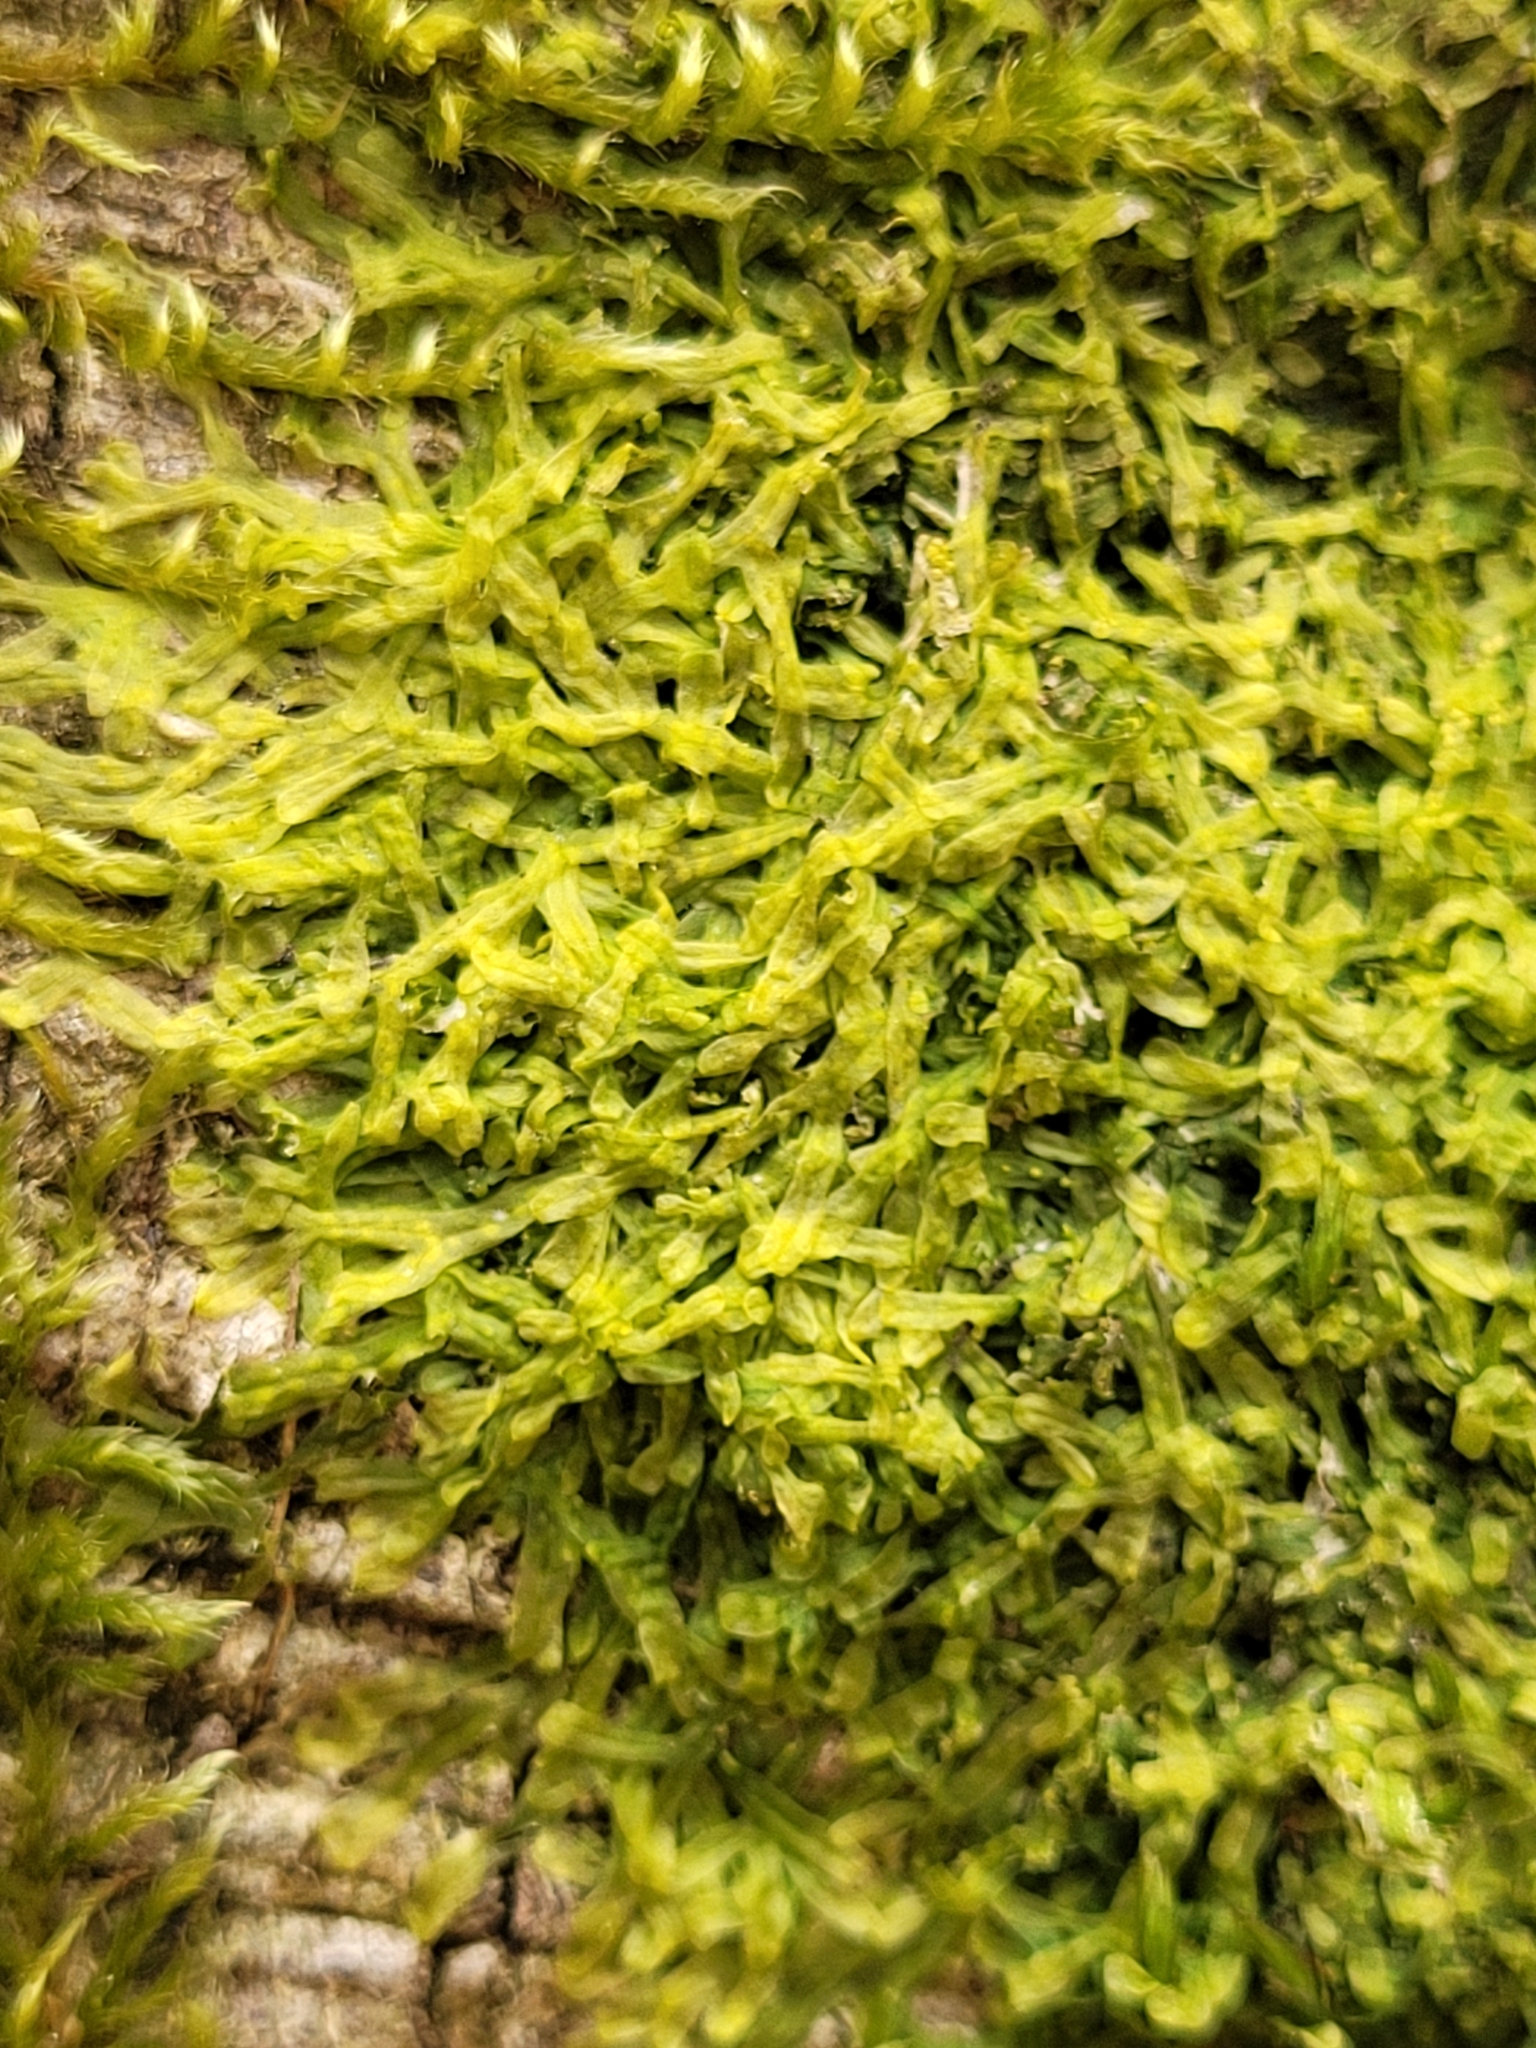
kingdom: Plantae
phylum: Marchantiophyta
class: Jungermanniopsida
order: Metzgeriales
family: Metzgeriaceae
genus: Metzgeria
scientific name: Metzgeria furcata
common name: Forked veilwort
